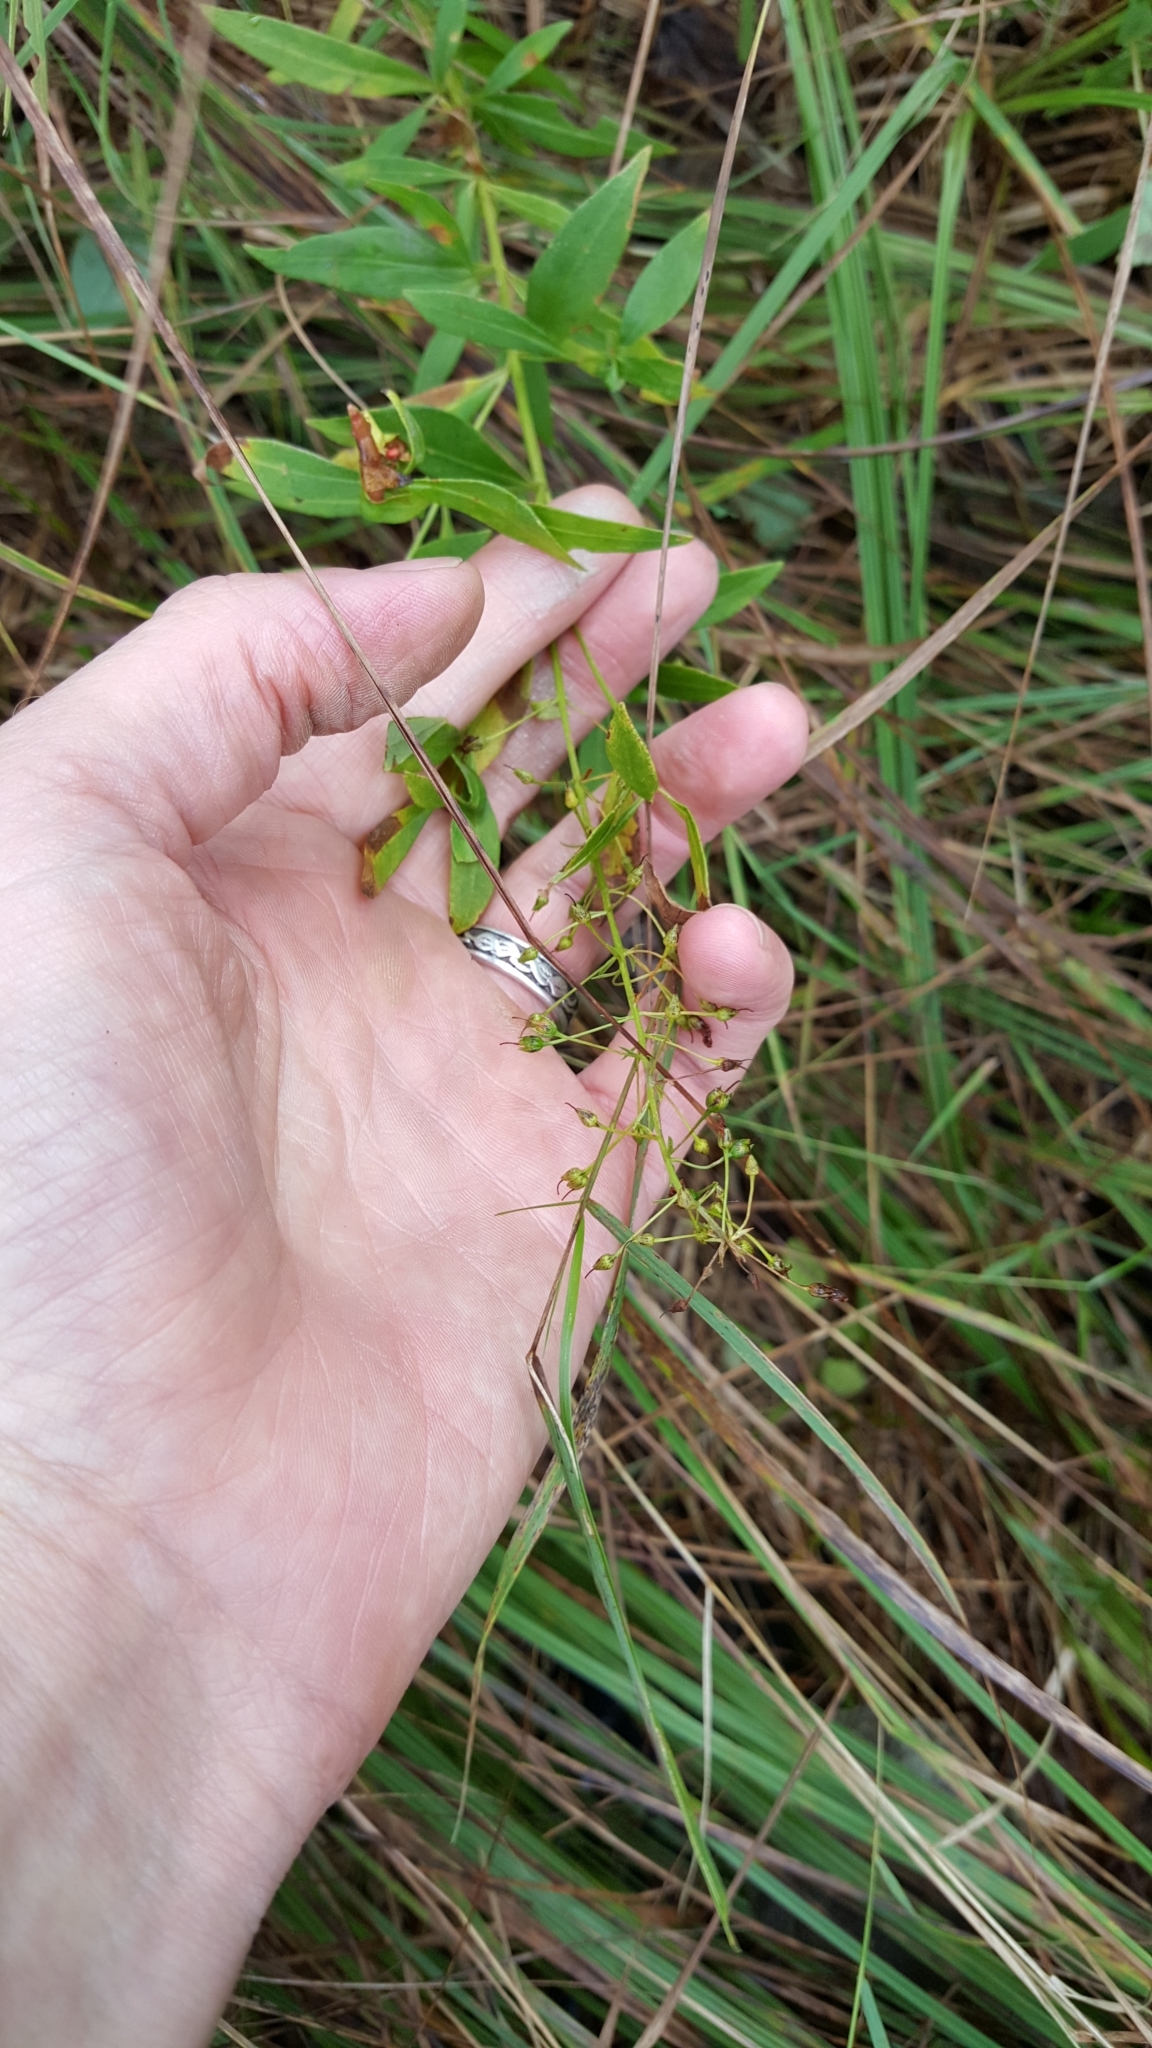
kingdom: Plantae
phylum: Tracheophyta
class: Magnoliopsida
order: Ericales
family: Primulaceae
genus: Lysimachia
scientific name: Lysimachia terrestris
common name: Lake loosestrife
